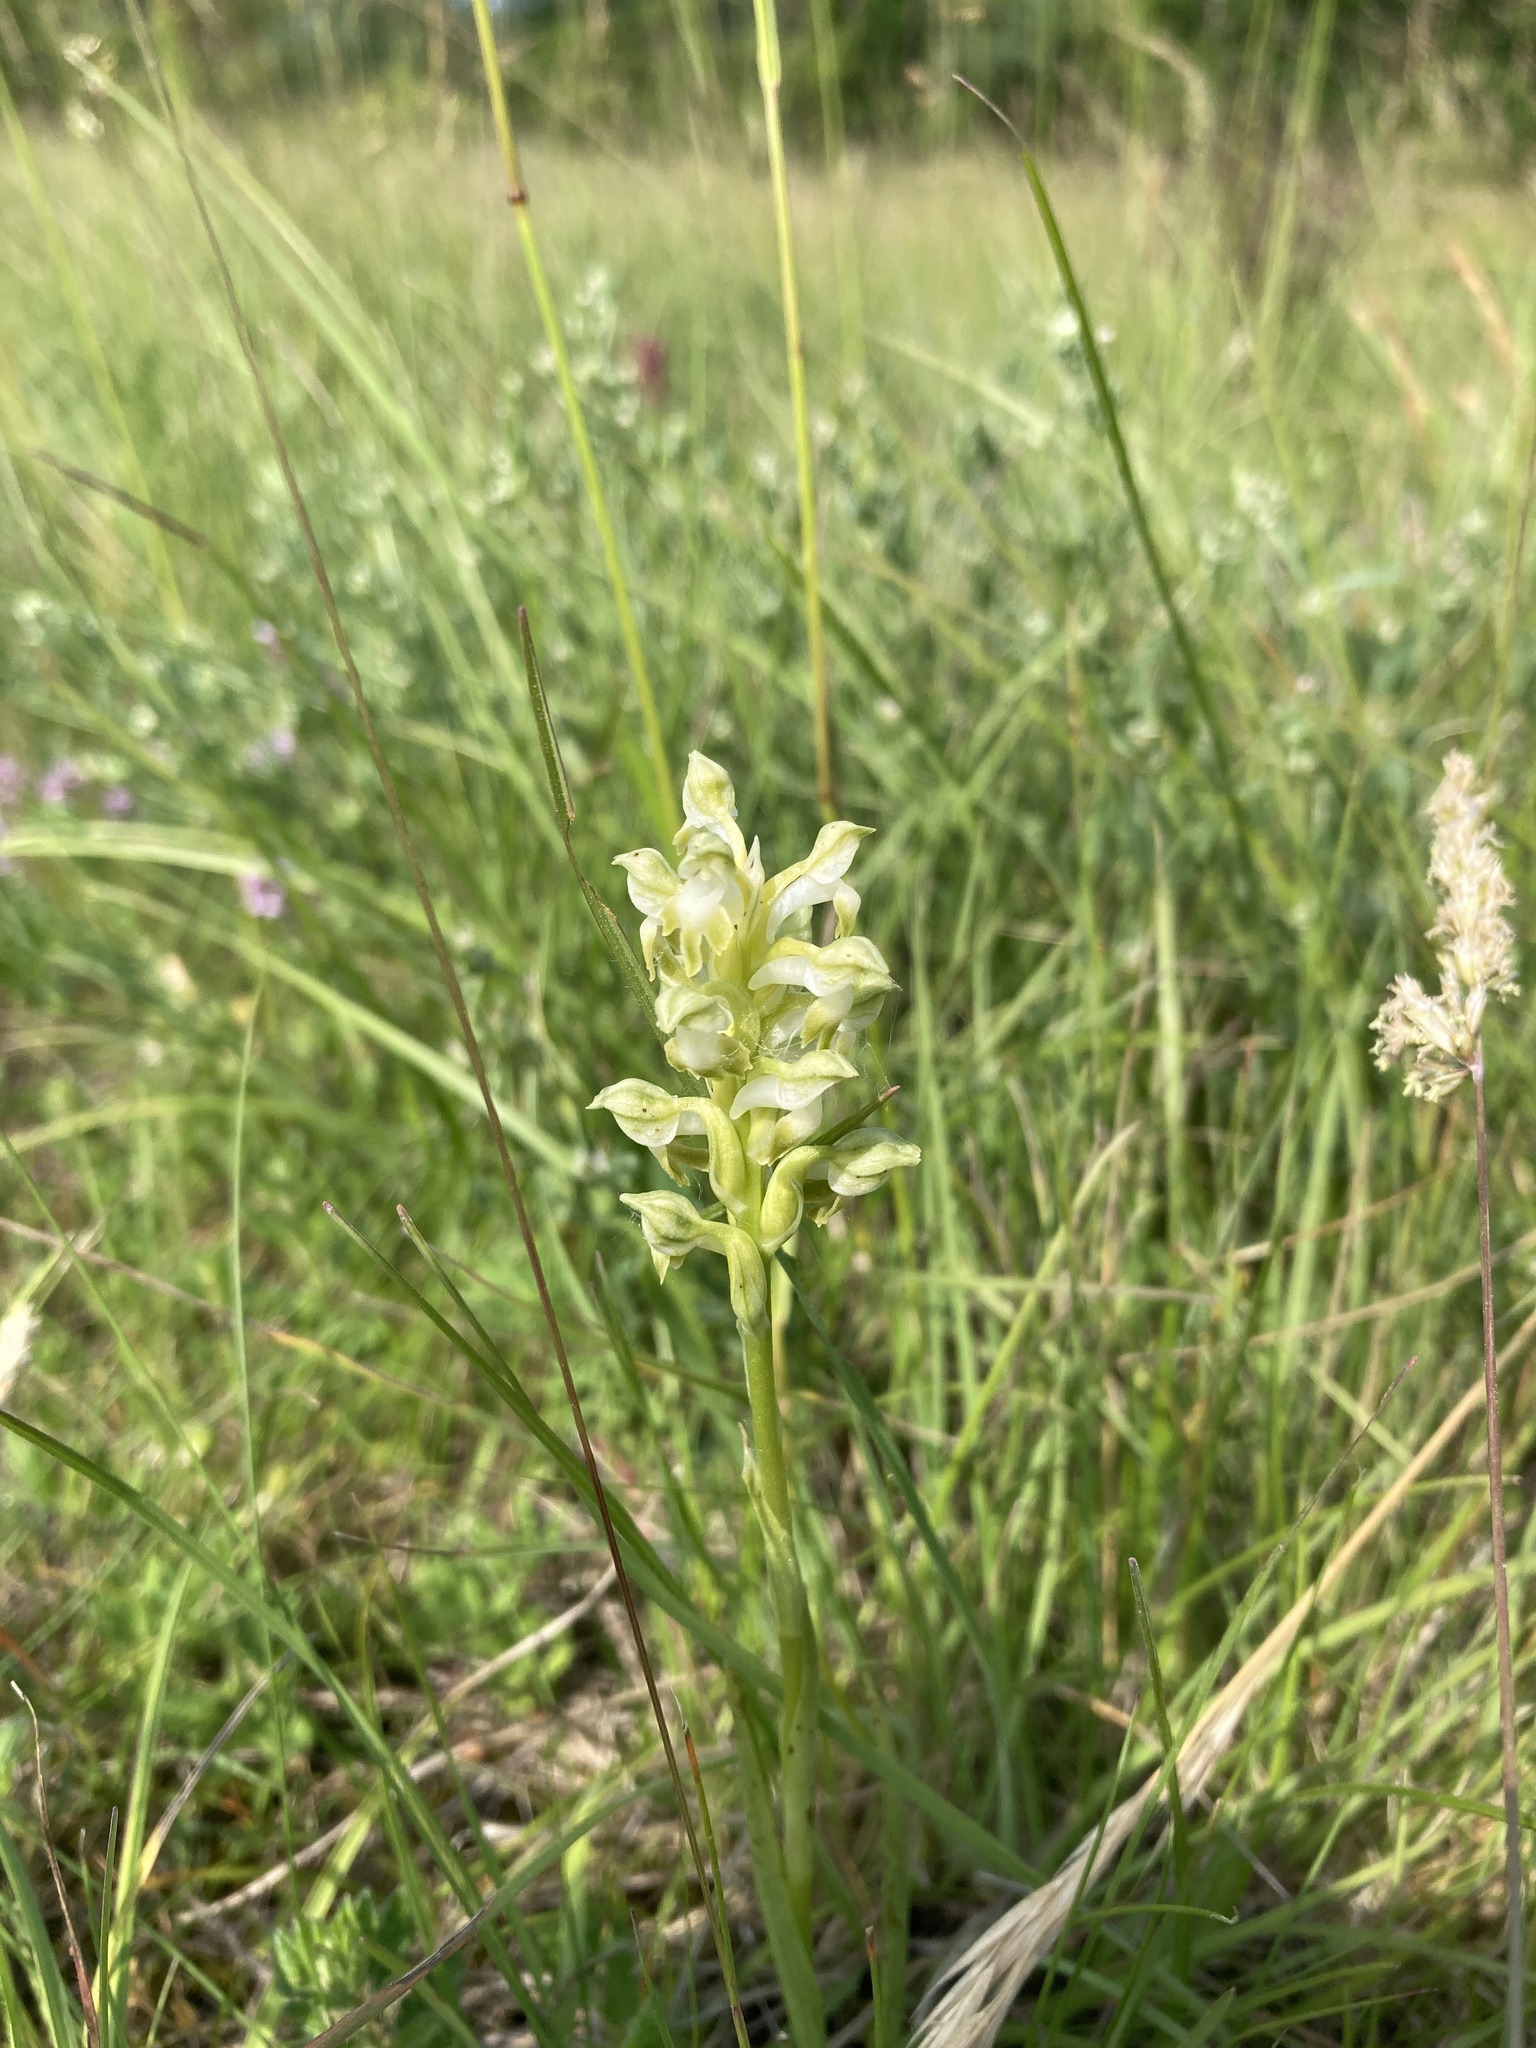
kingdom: Plantae
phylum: Tracheophyta
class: Liliopsida
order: Asparagales
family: Orchidaceae
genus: Anacamptis
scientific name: Anacamptis coriophora
